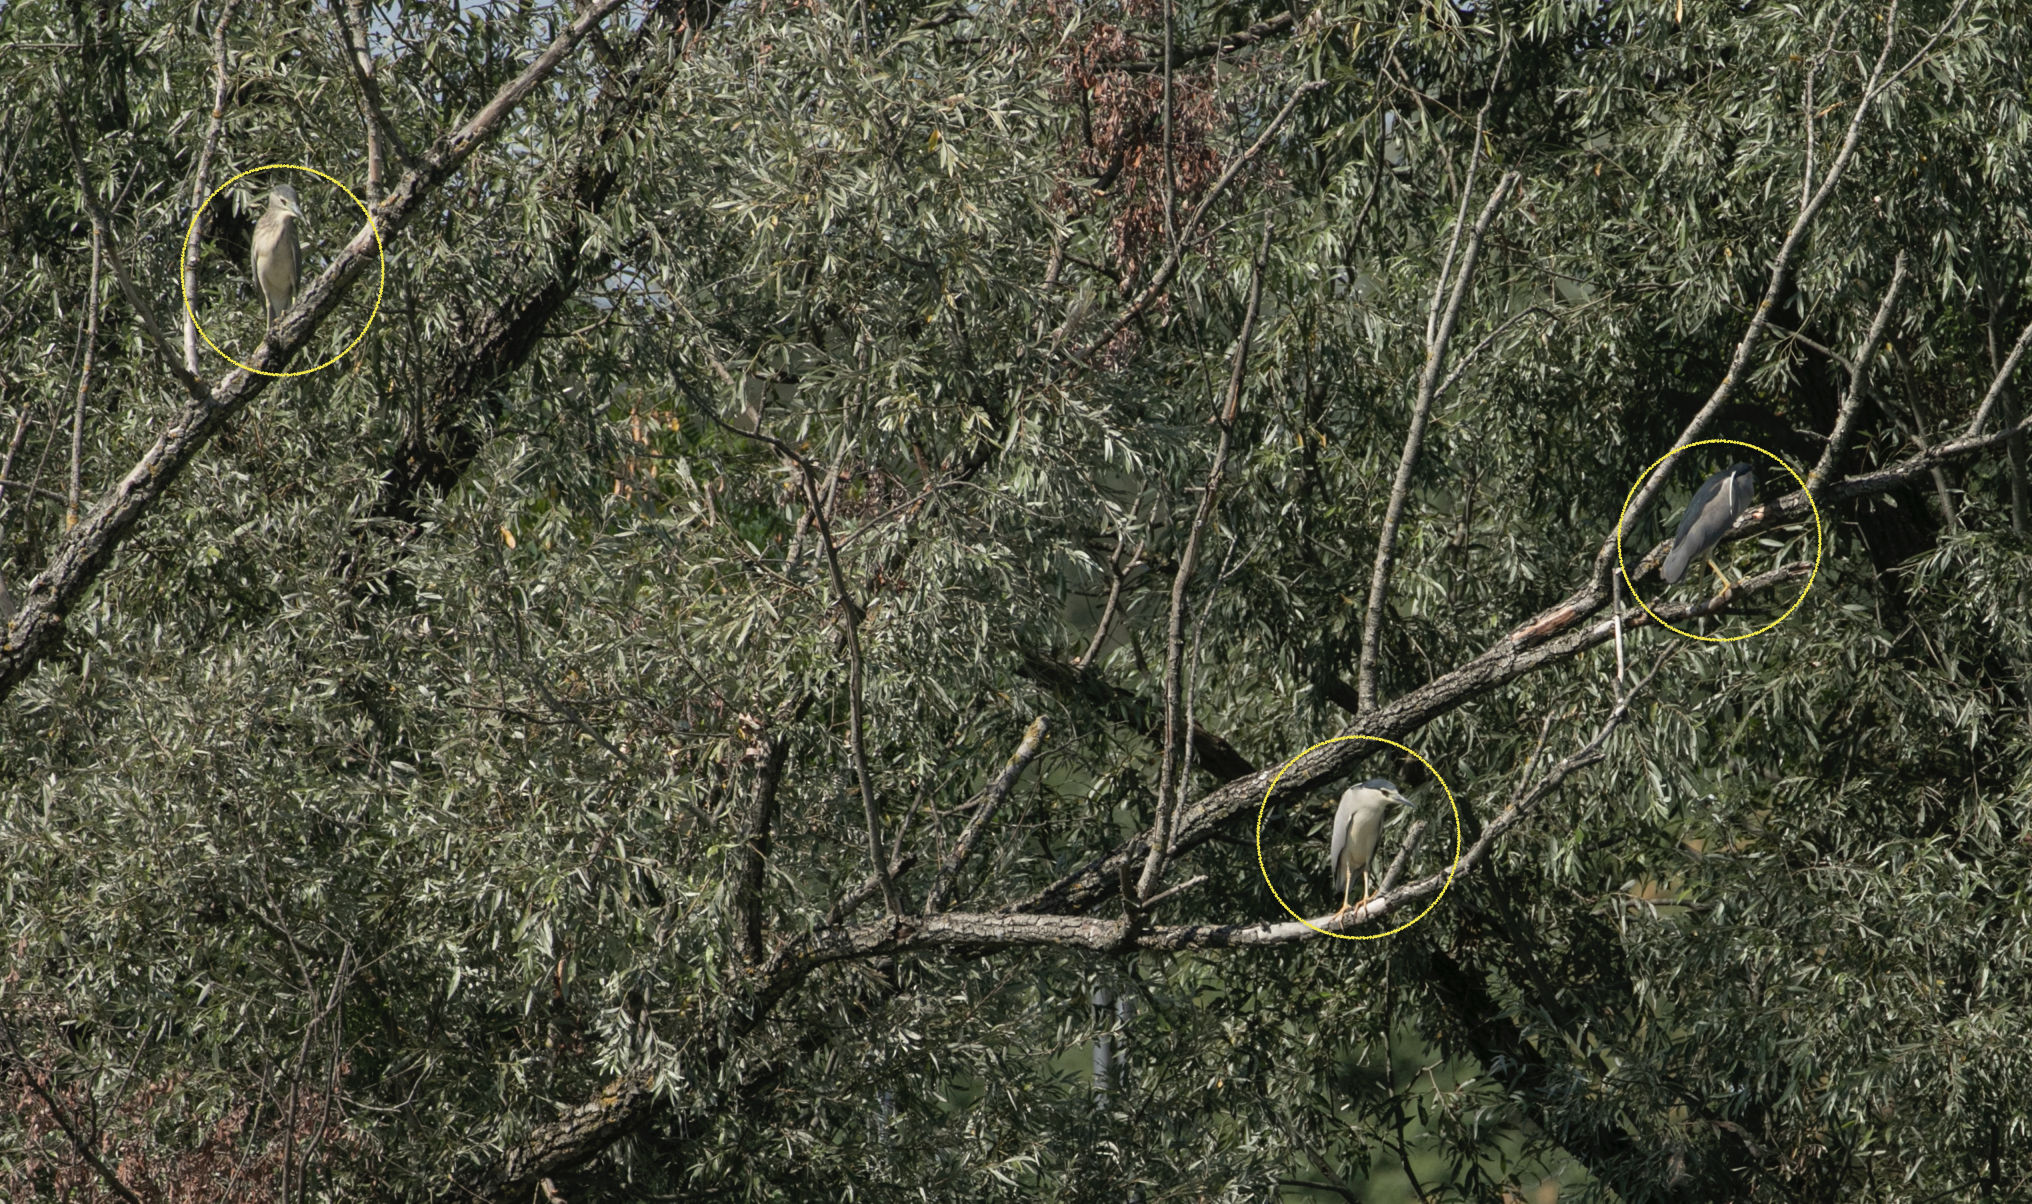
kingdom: Animalia
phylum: Chordata
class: Aves
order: Pelecaniformes
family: Ardeidae
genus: Nycticorax
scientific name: Nycticorax nycticorax
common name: Black-crowned night heron
